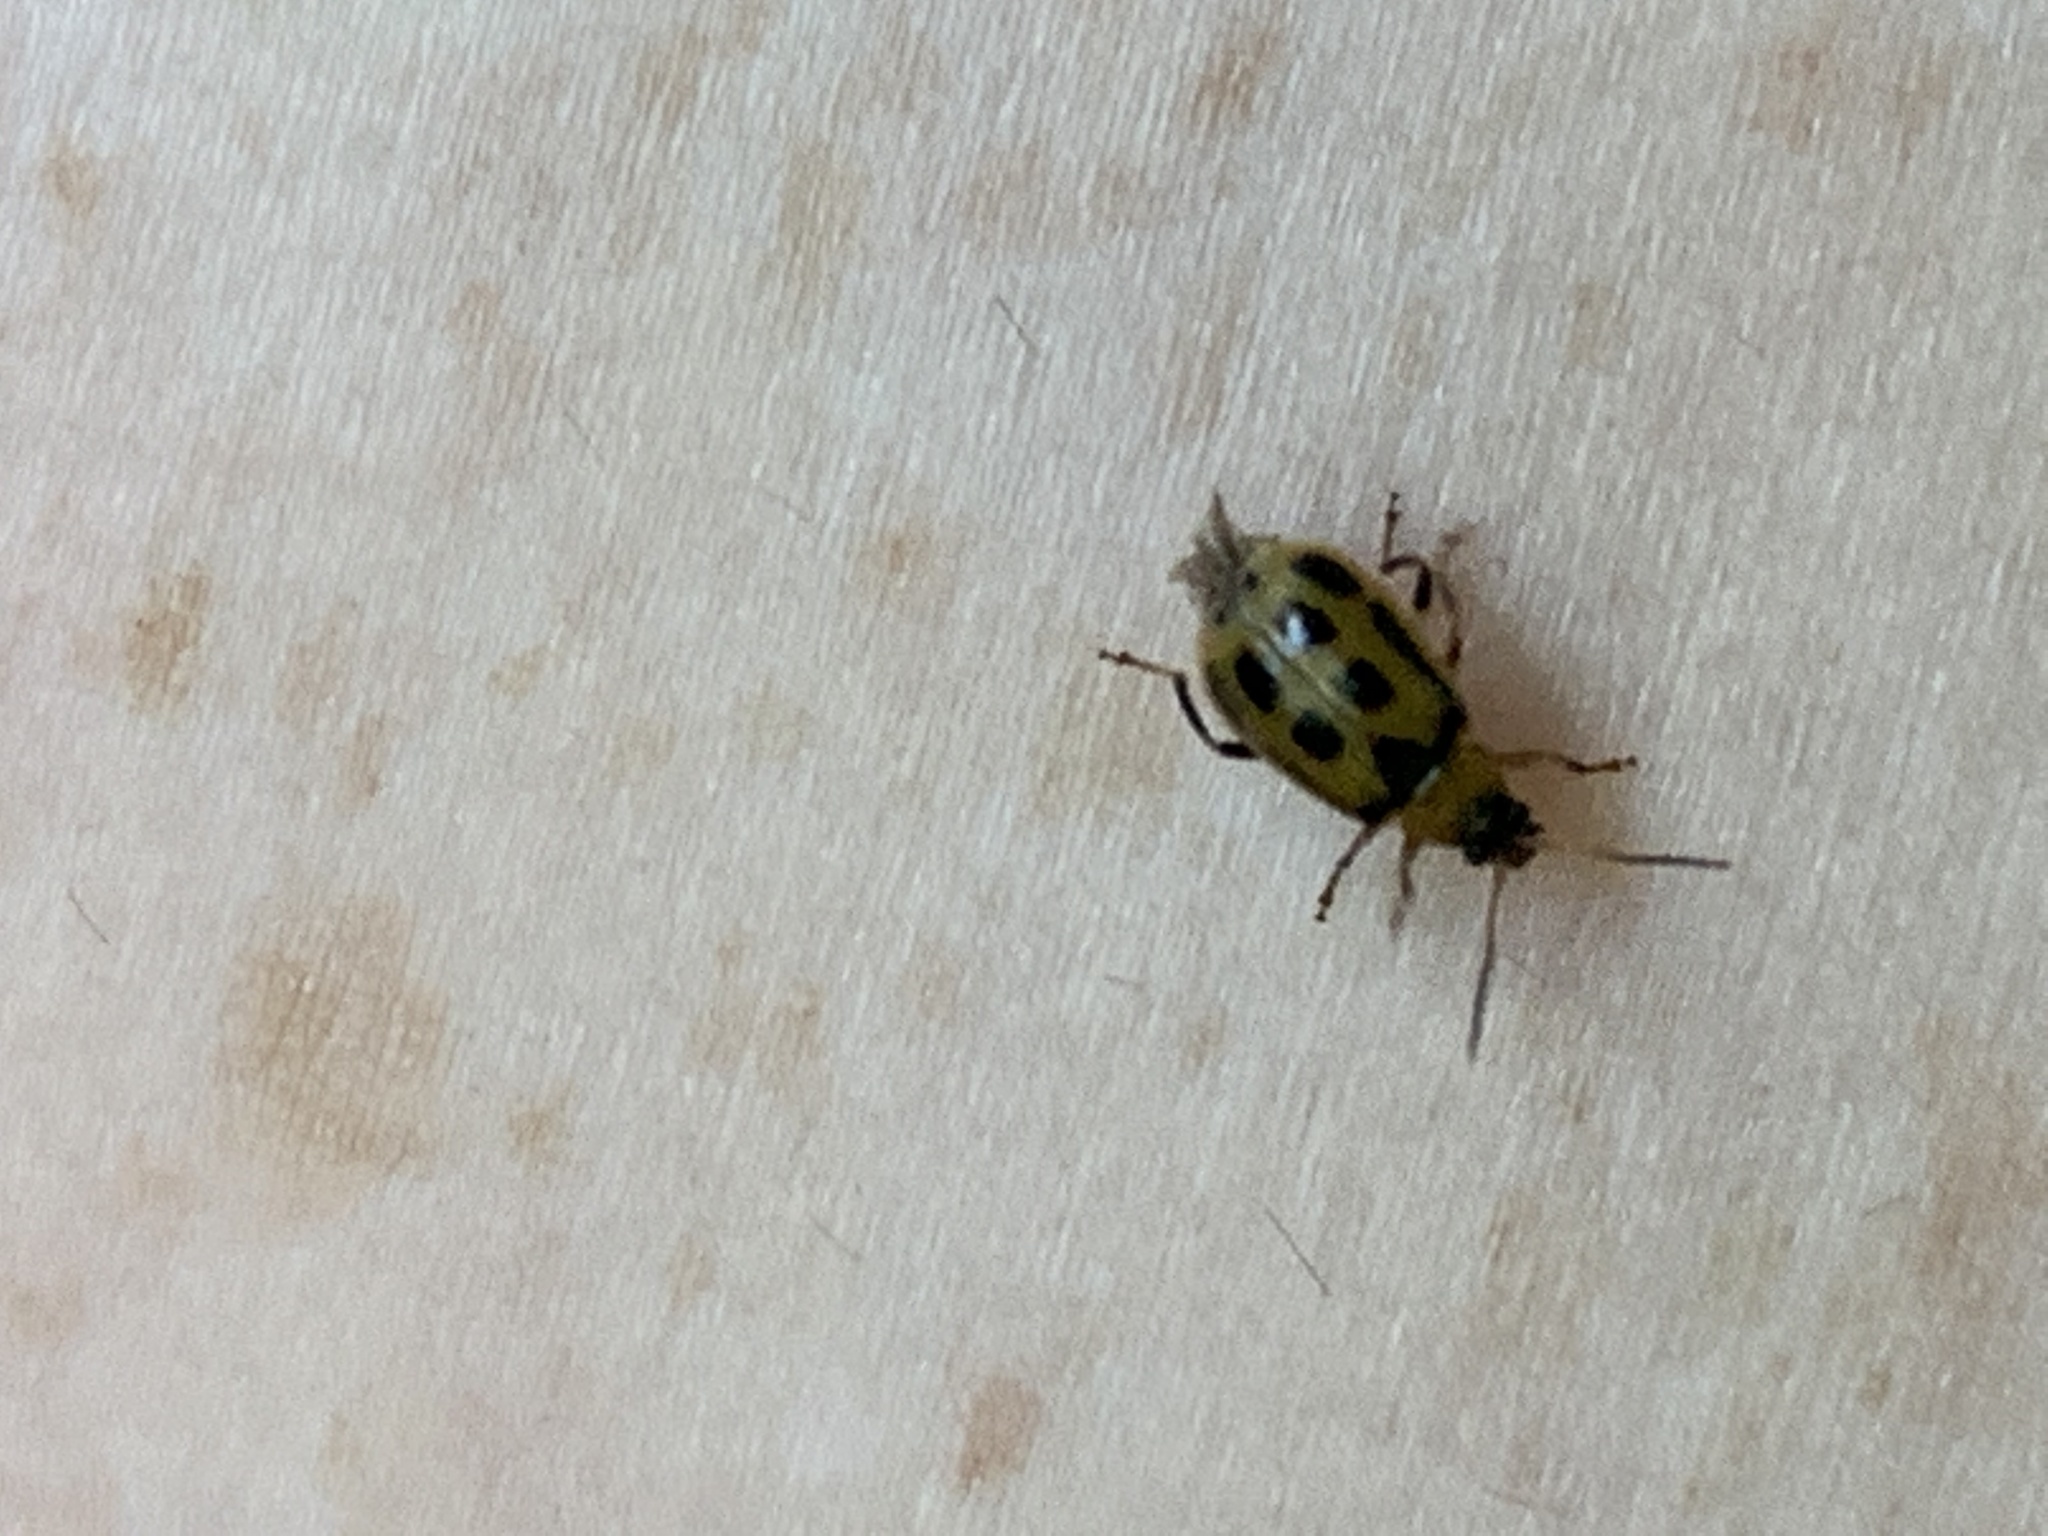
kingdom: Animalia
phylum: Arthropoda
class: Insecta
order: Coleoptera
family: Chrysomelidae
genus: Cerotoma
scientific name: Cerotoma trifurcata
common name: Bean leaf beetle
